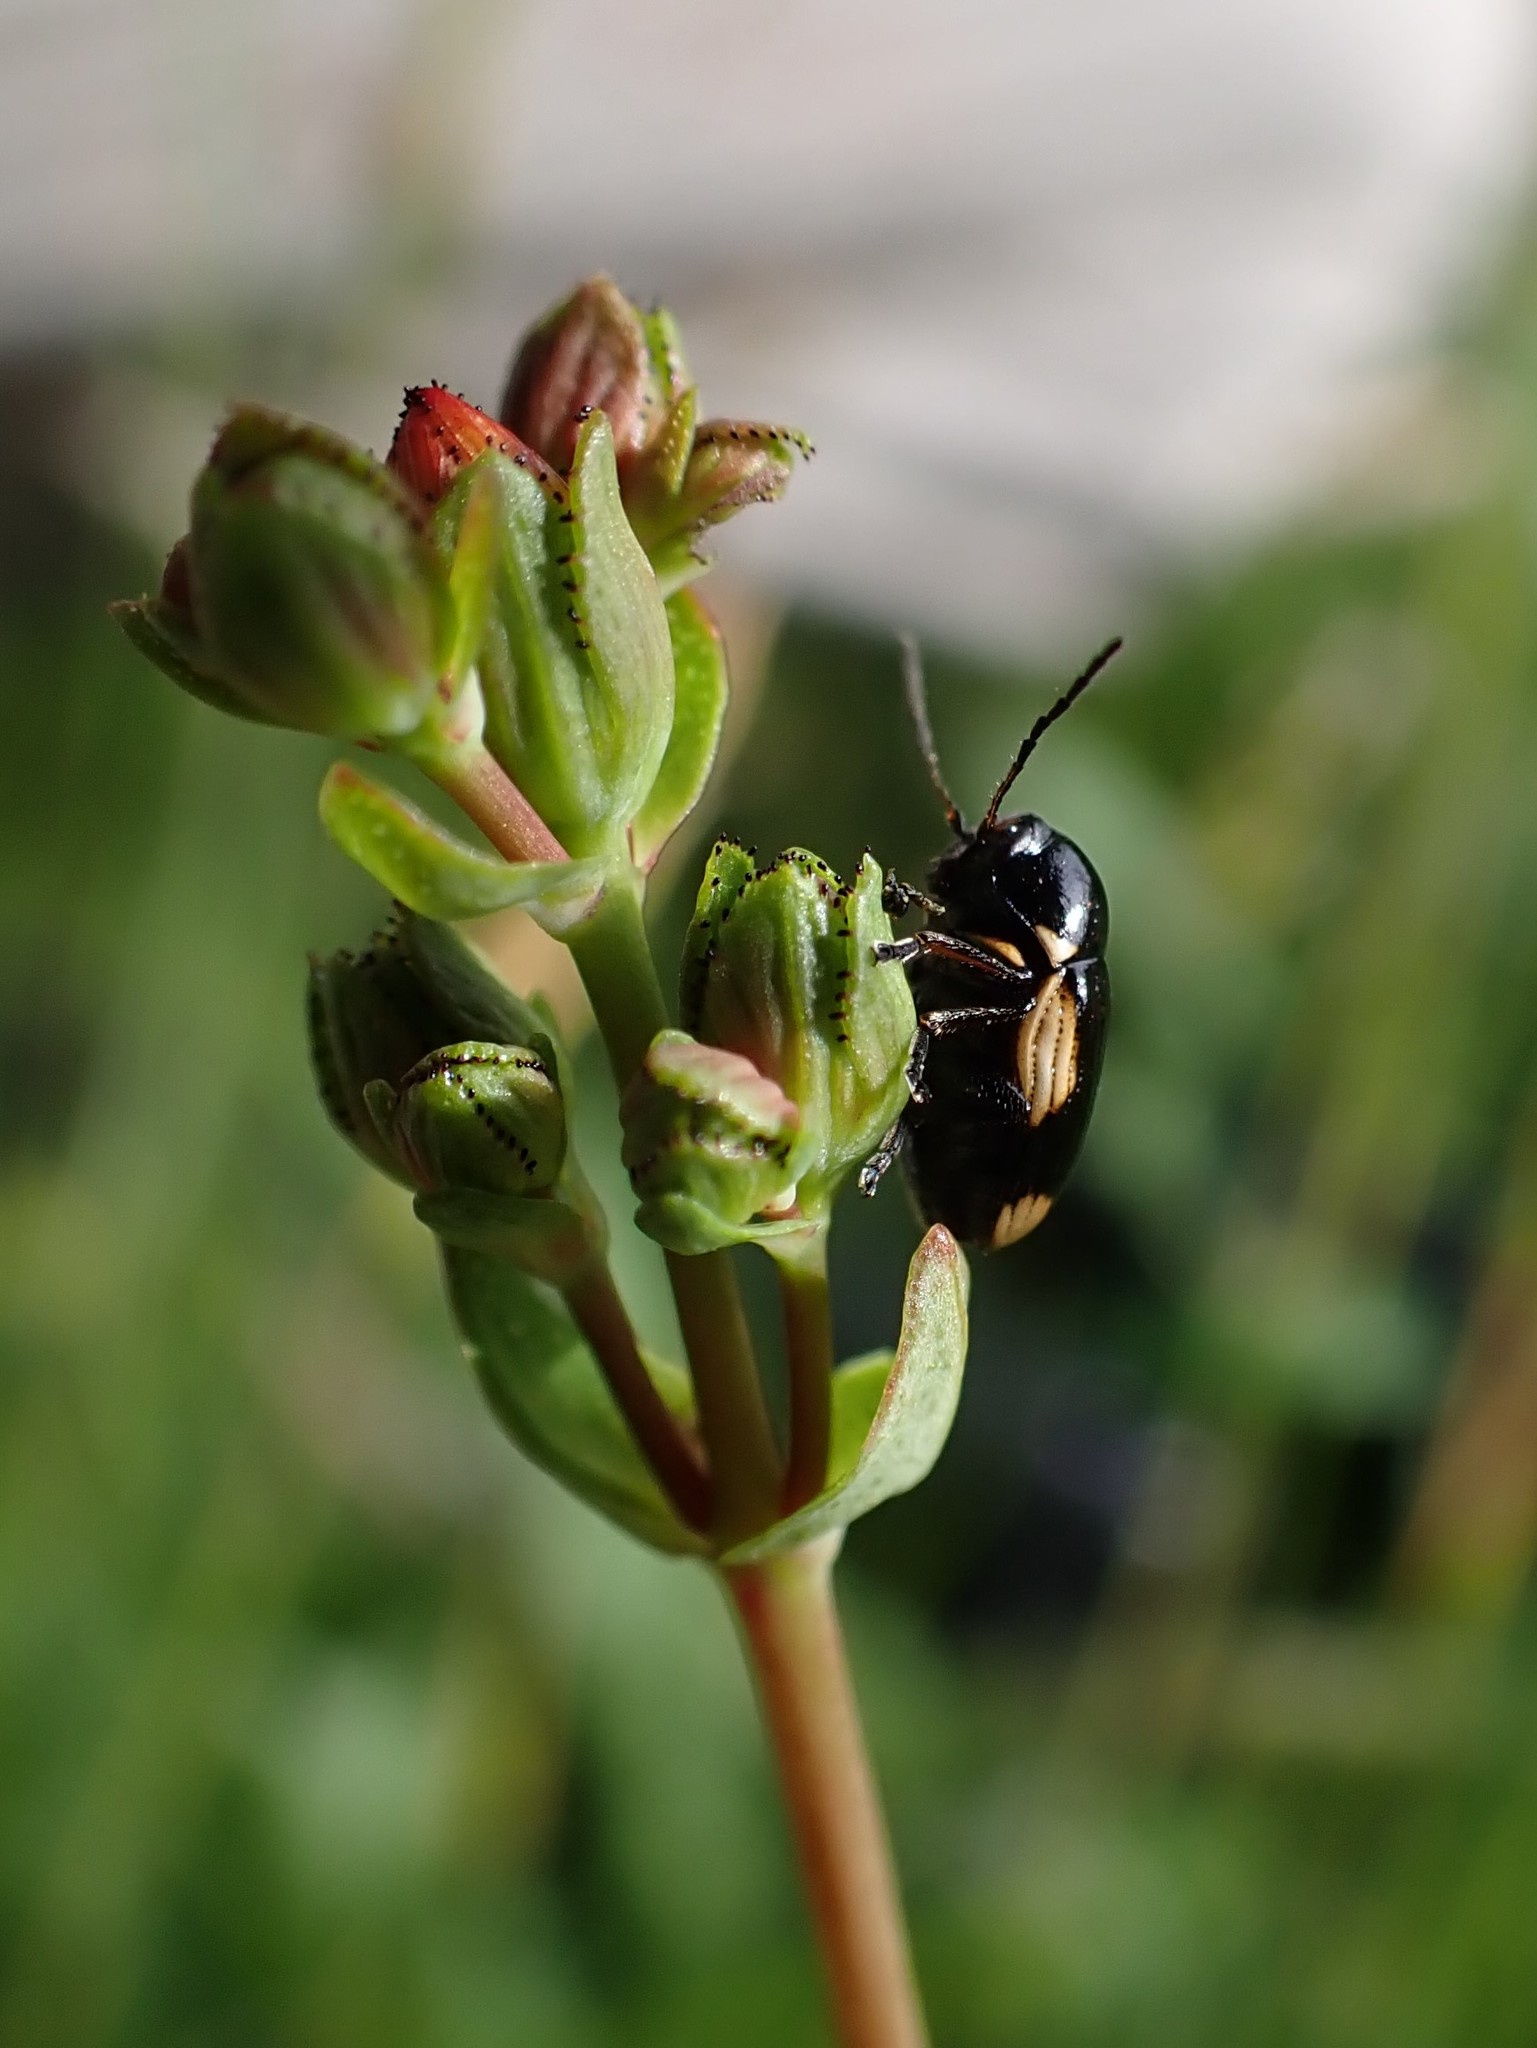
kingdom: Animalia
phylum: Arthropoda
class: Insecta
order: Coleoptera
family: Chrysomelidae
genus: Cryptocephalus
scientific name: Cryptocephalus moraei
